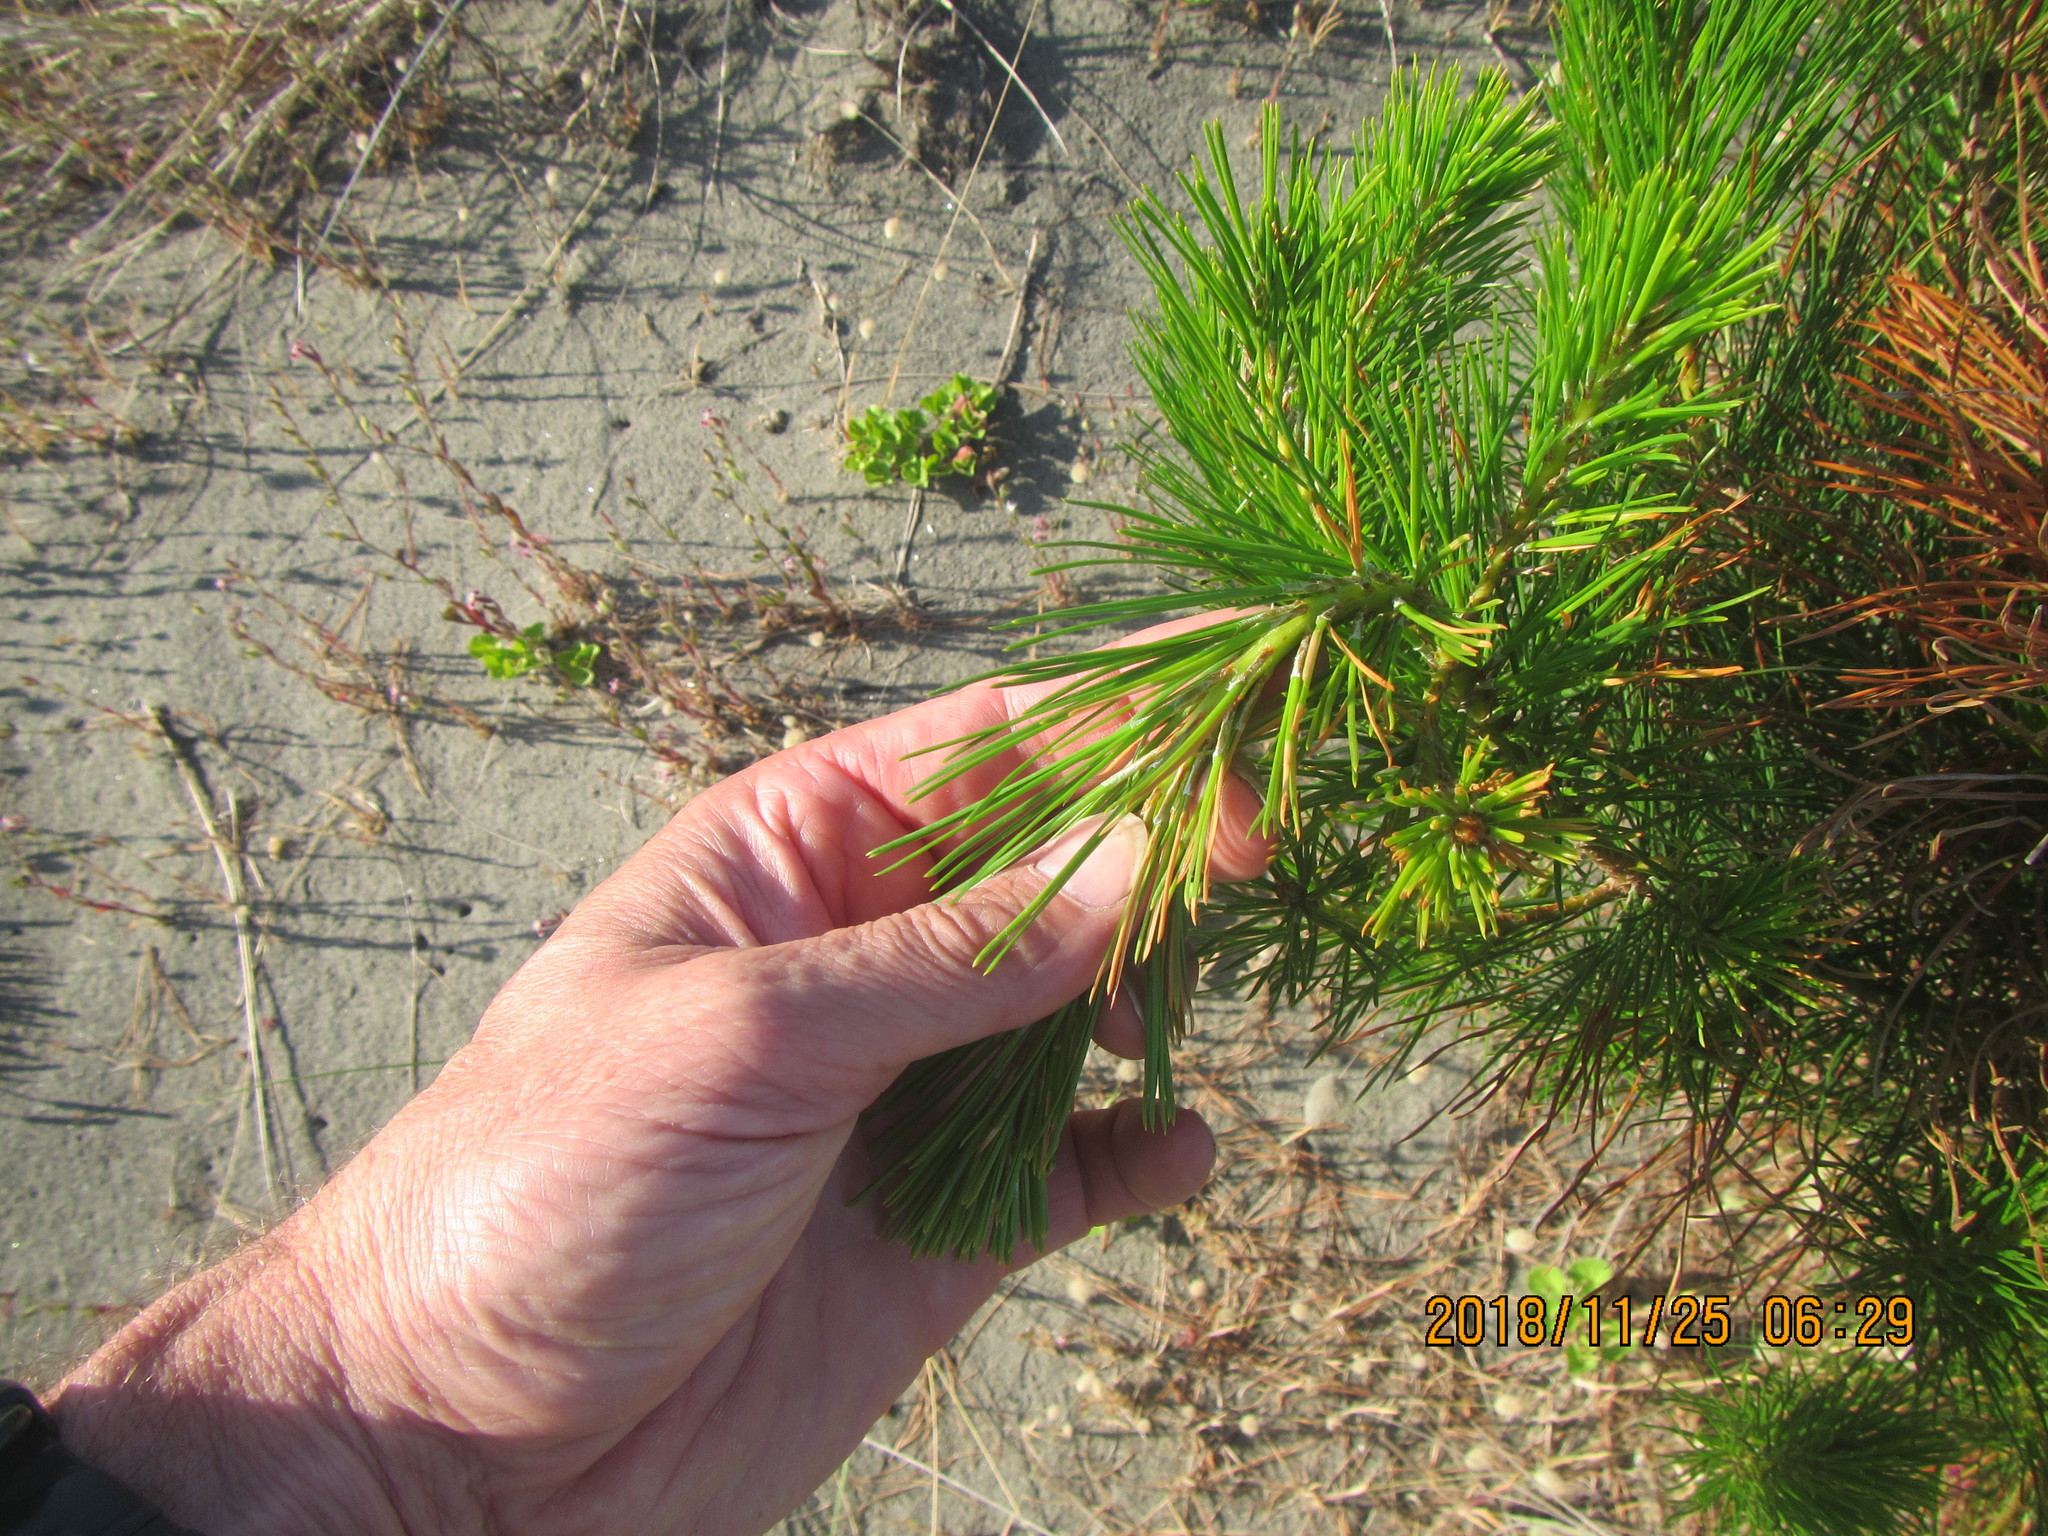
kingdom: Plantae
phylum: Tracheophyta
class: Pinopsida
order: Pinales
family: Pinaceae
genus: Pinus
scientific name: Pinus radiata
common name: Monterey pine
